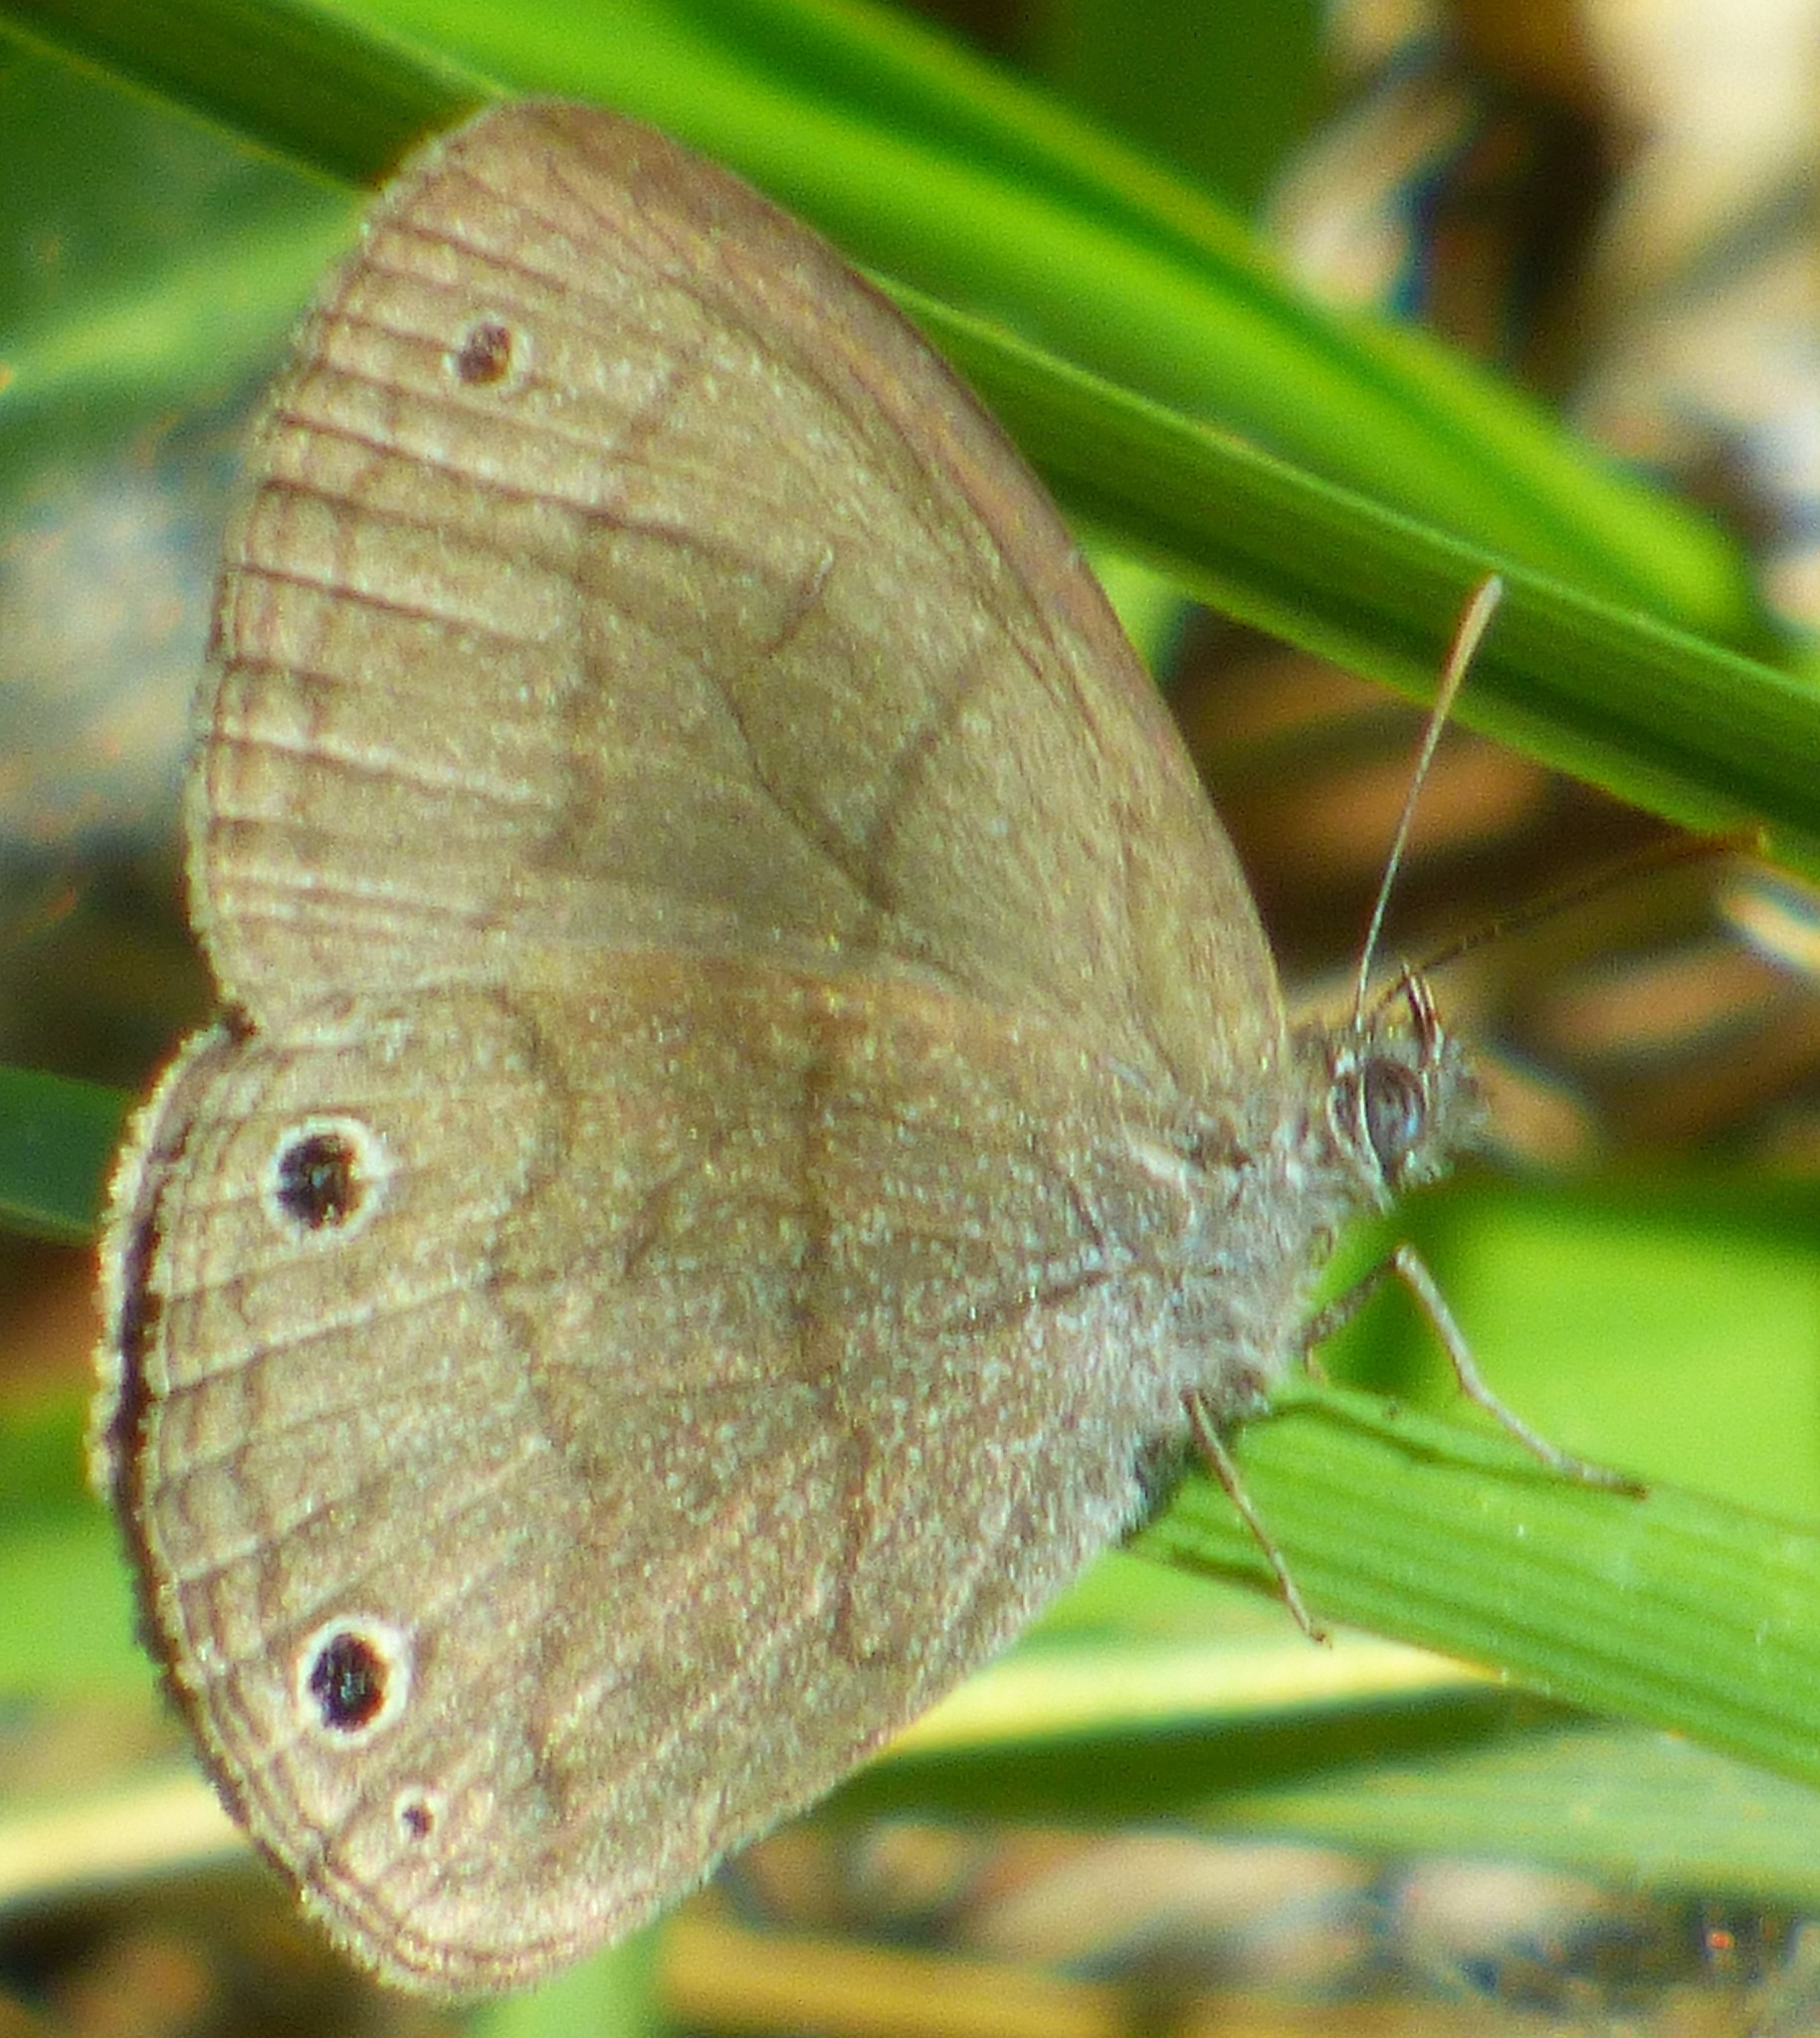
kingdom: Animalia
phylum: Arthropoda
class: Insecta
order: Lepidoptera
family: Nymphalidae
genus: Hermeuptychia
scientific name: Hermeuptychia hermes
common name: Hermes satyr
